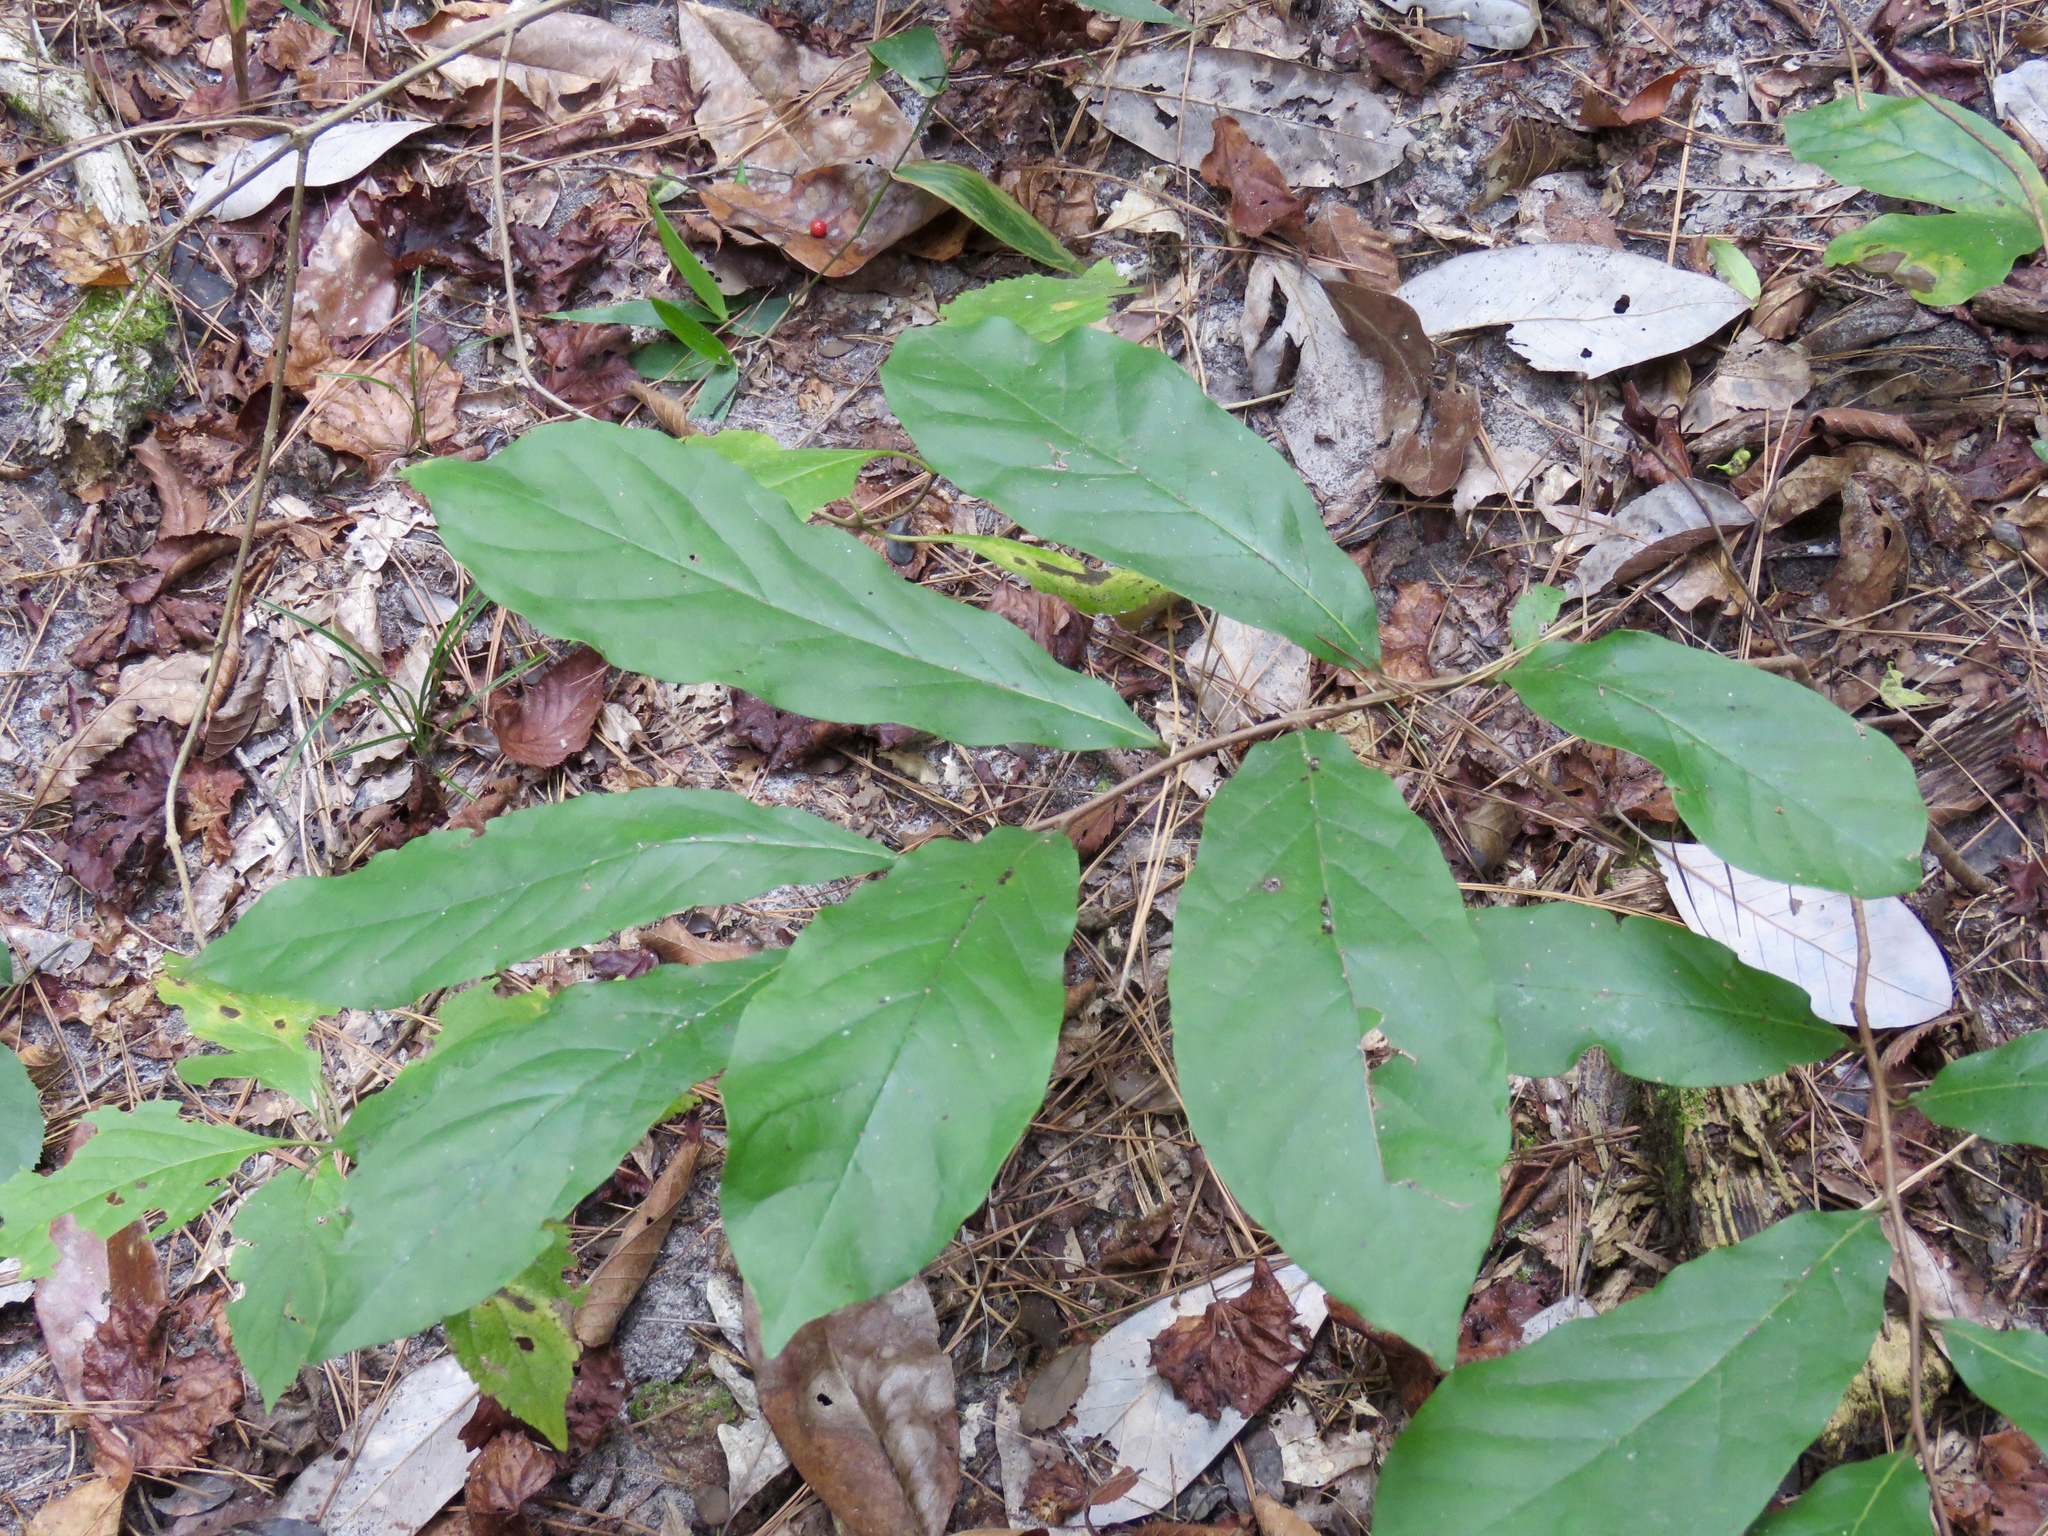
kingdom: Plantae
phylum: Tracheophyta
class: Magnoliopsida
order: Magnoliales
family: Annonaceae
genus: Asimina
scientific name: Asimina parviflora
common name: Dwarf pawpaw
